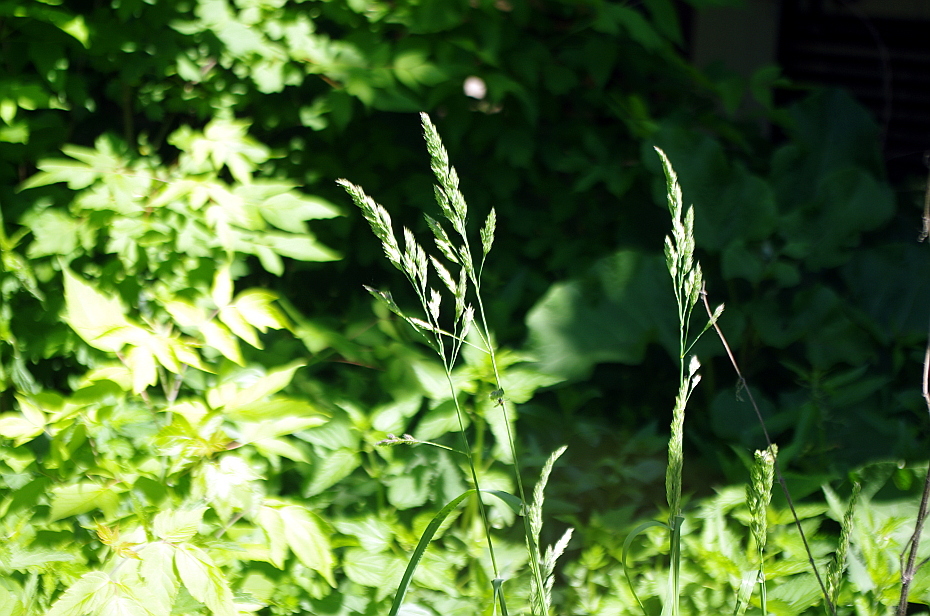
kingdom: Plantae
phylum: Tracheophyta
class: Liliopsida
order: Poales
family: Poaceae
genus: Dactylis
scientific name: Dactylis glomerata
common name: Orchardgrass
